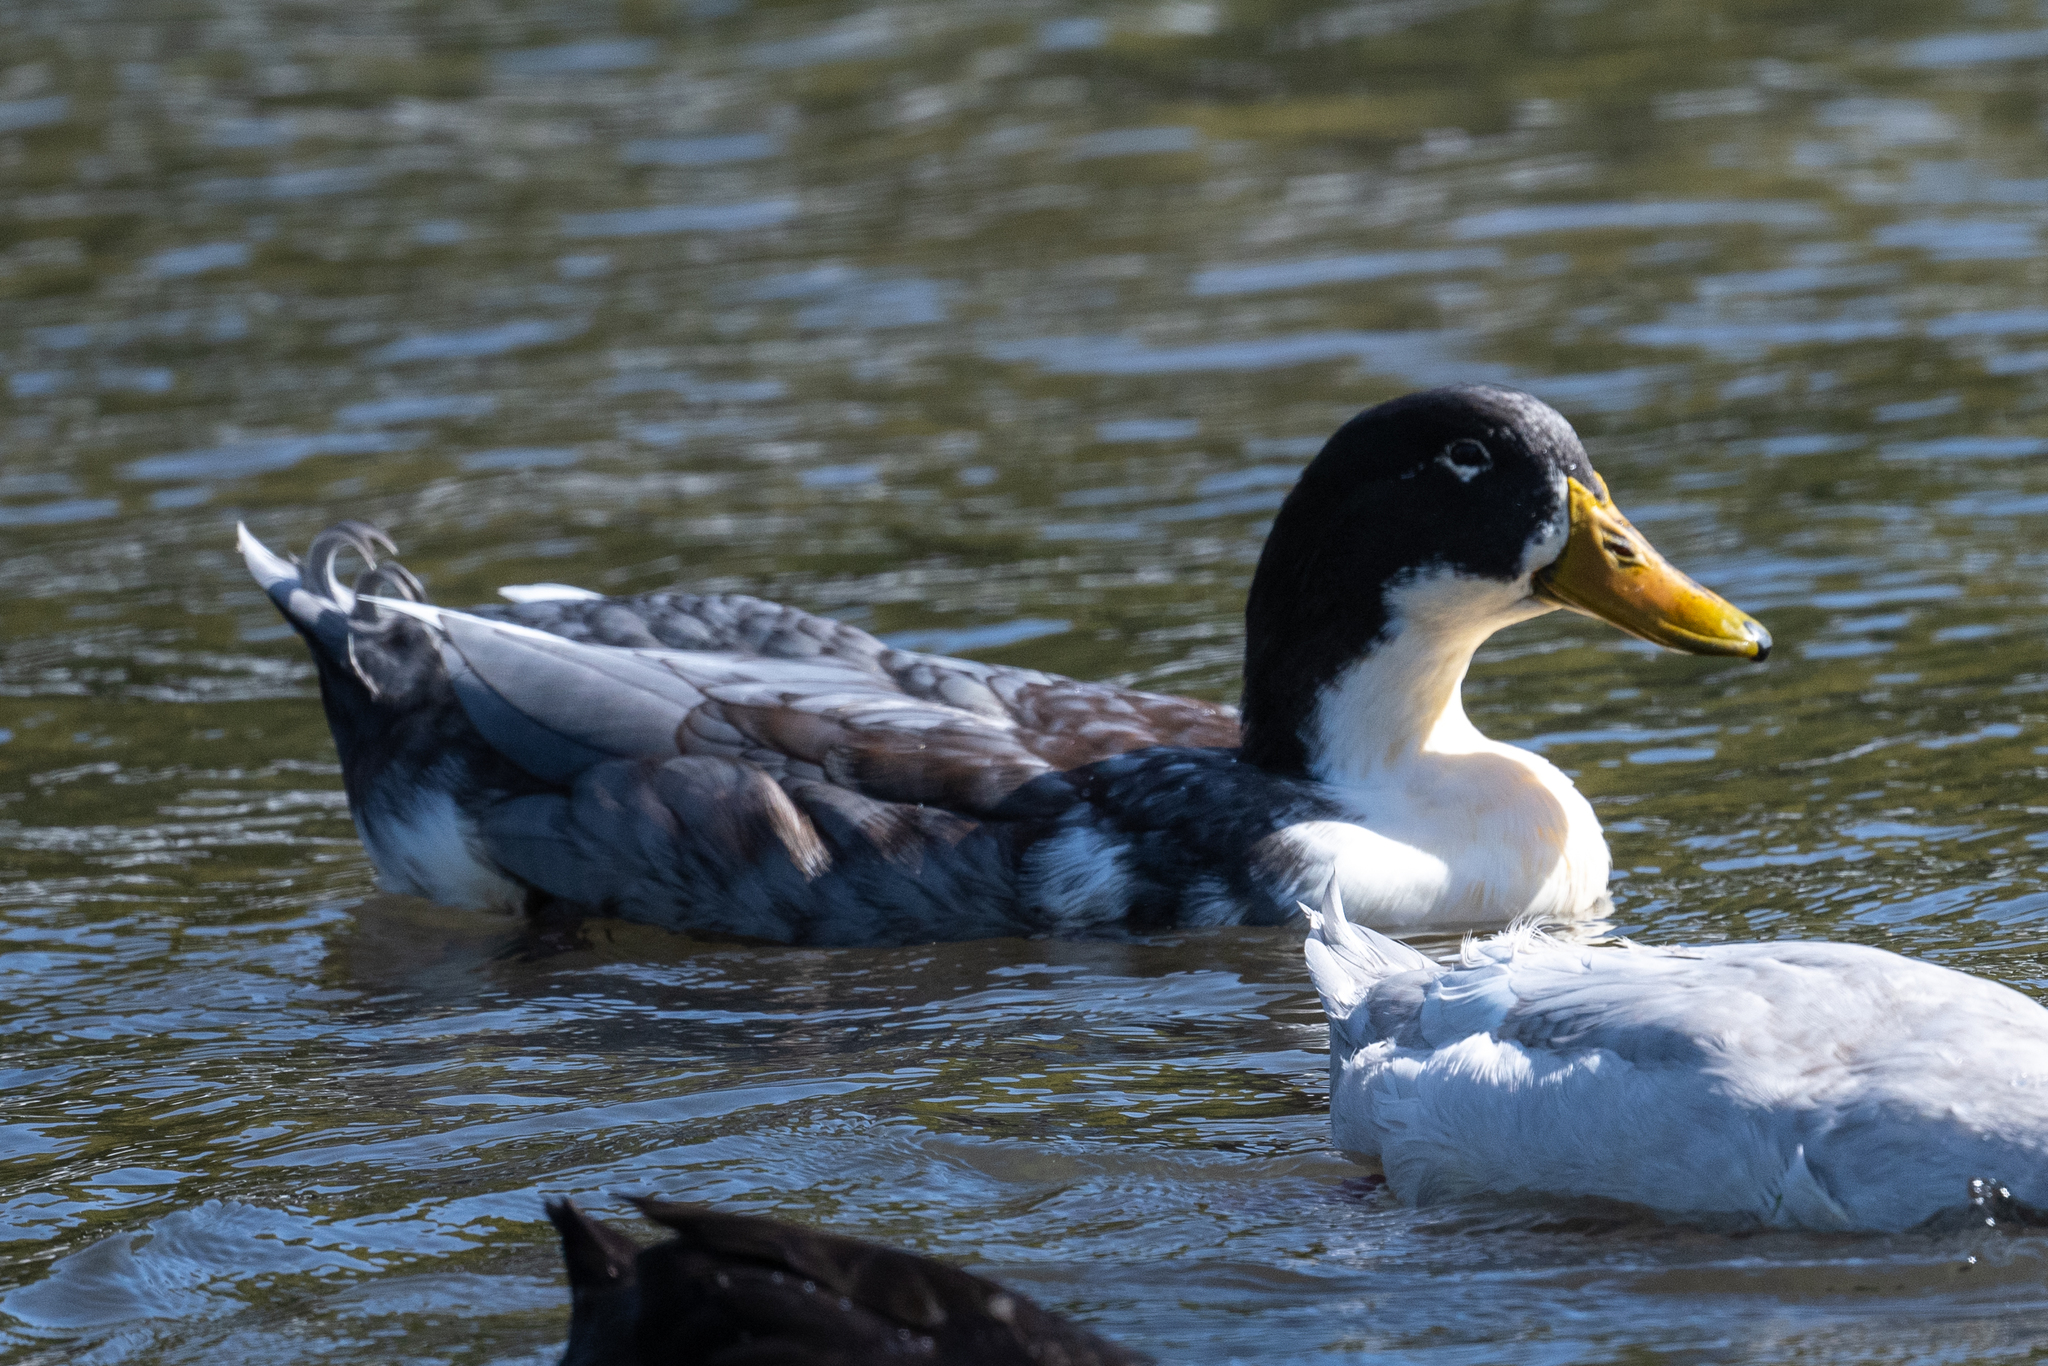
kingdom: Animalia
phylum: Chordata
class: Aves
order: Anseriformes
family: Anatidae
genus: Anas
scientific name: Anas platyrhynchos
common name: Mallard
